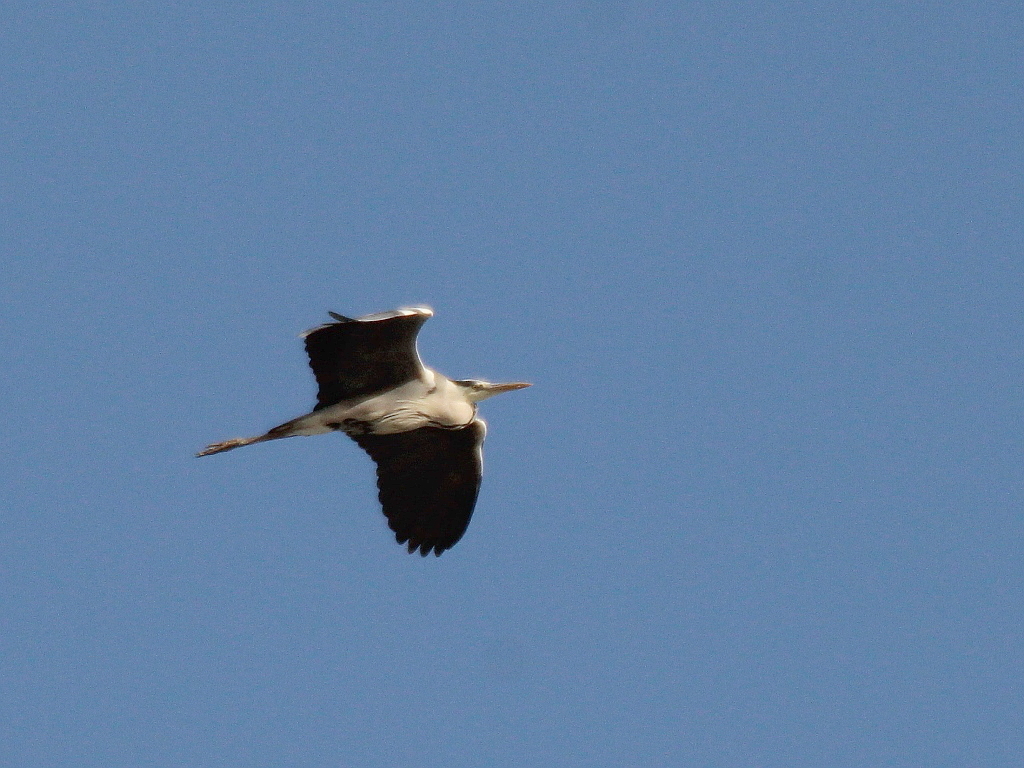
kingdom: Animalia
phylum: Chordata
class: Aves
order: Pelecaniformes
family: Ardeidae
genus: Ardea
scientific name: Ardea cinerea
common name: Grey heron
